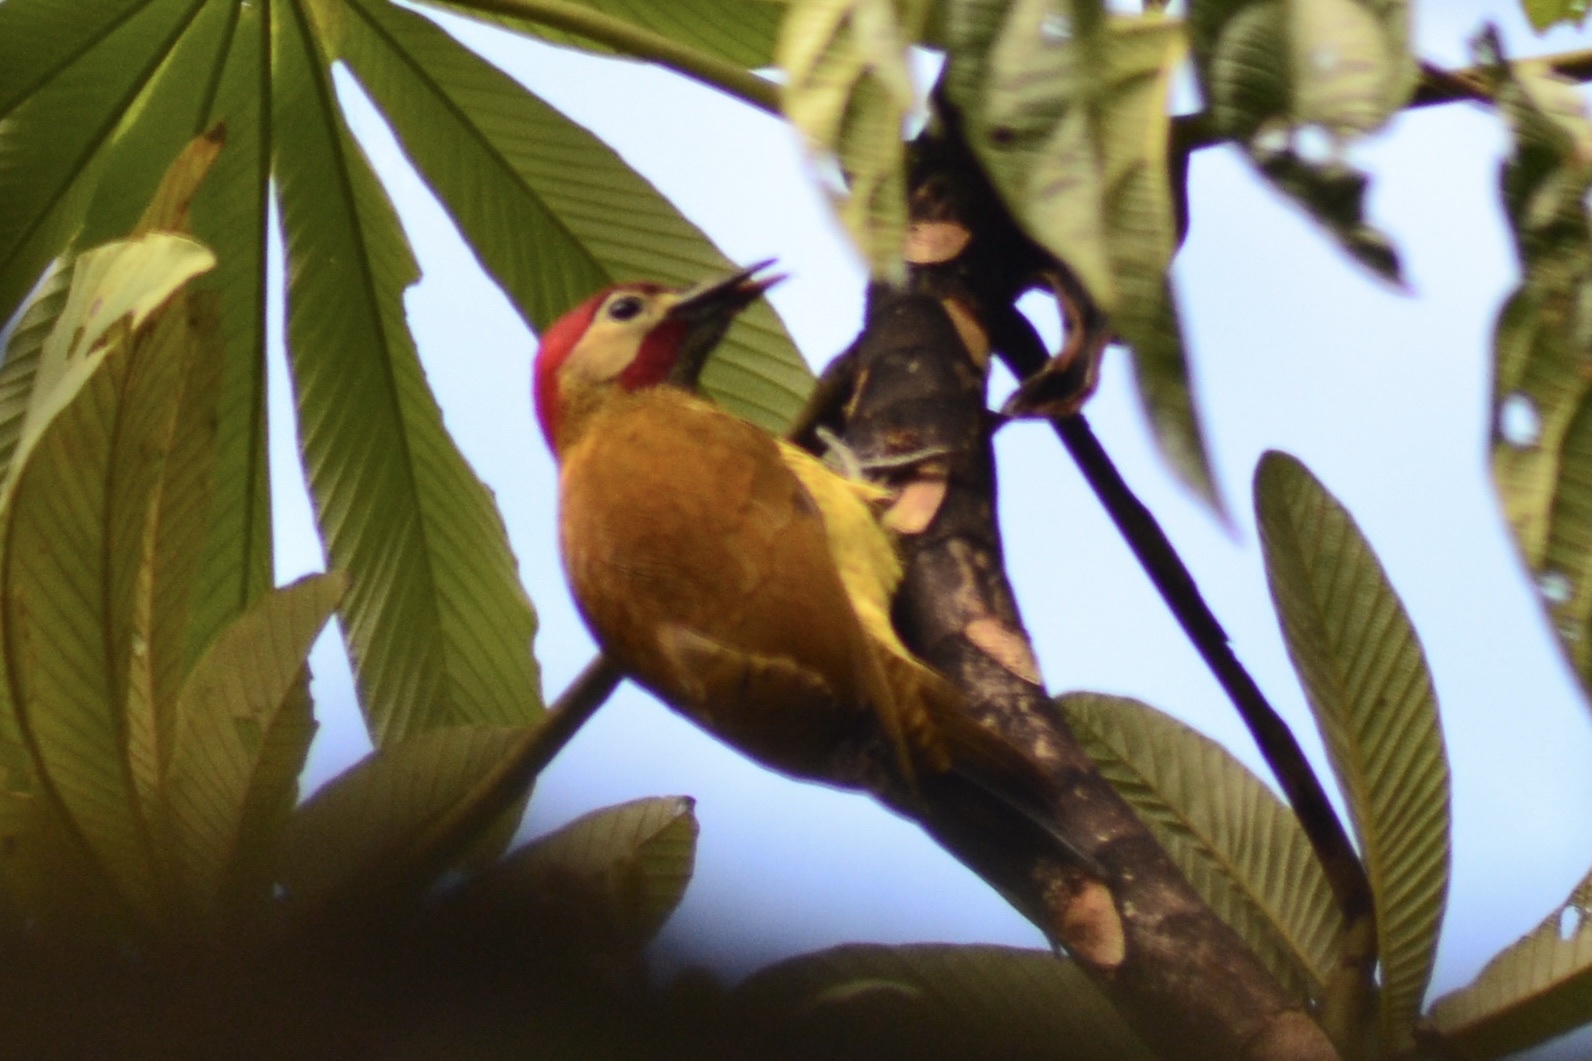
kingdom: Animalia
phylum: Chordata
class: Aves
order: Piciformes
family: Picidae
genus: Colaptes
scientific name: Colaptes rubiginosus
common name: Golden-olive woodpecker
